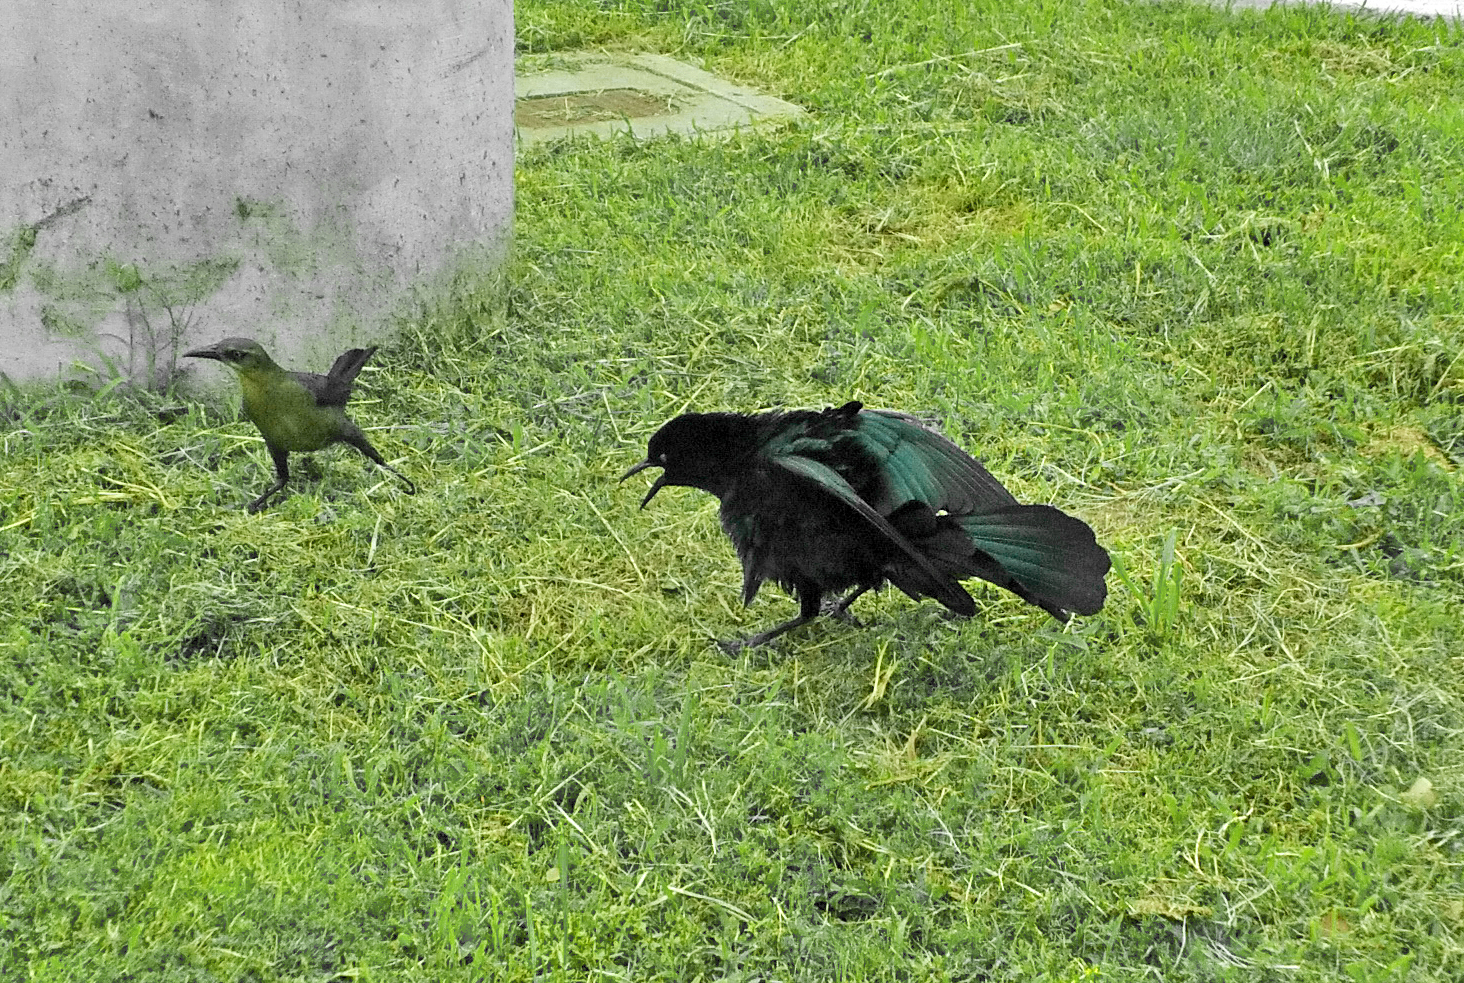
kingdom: Animalia
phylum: Chordata
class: Aves
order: Passeriformes
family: Icteridae
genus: Quiscalus
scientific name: Quiscalus mexicanus
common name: Great-tailed grackle
